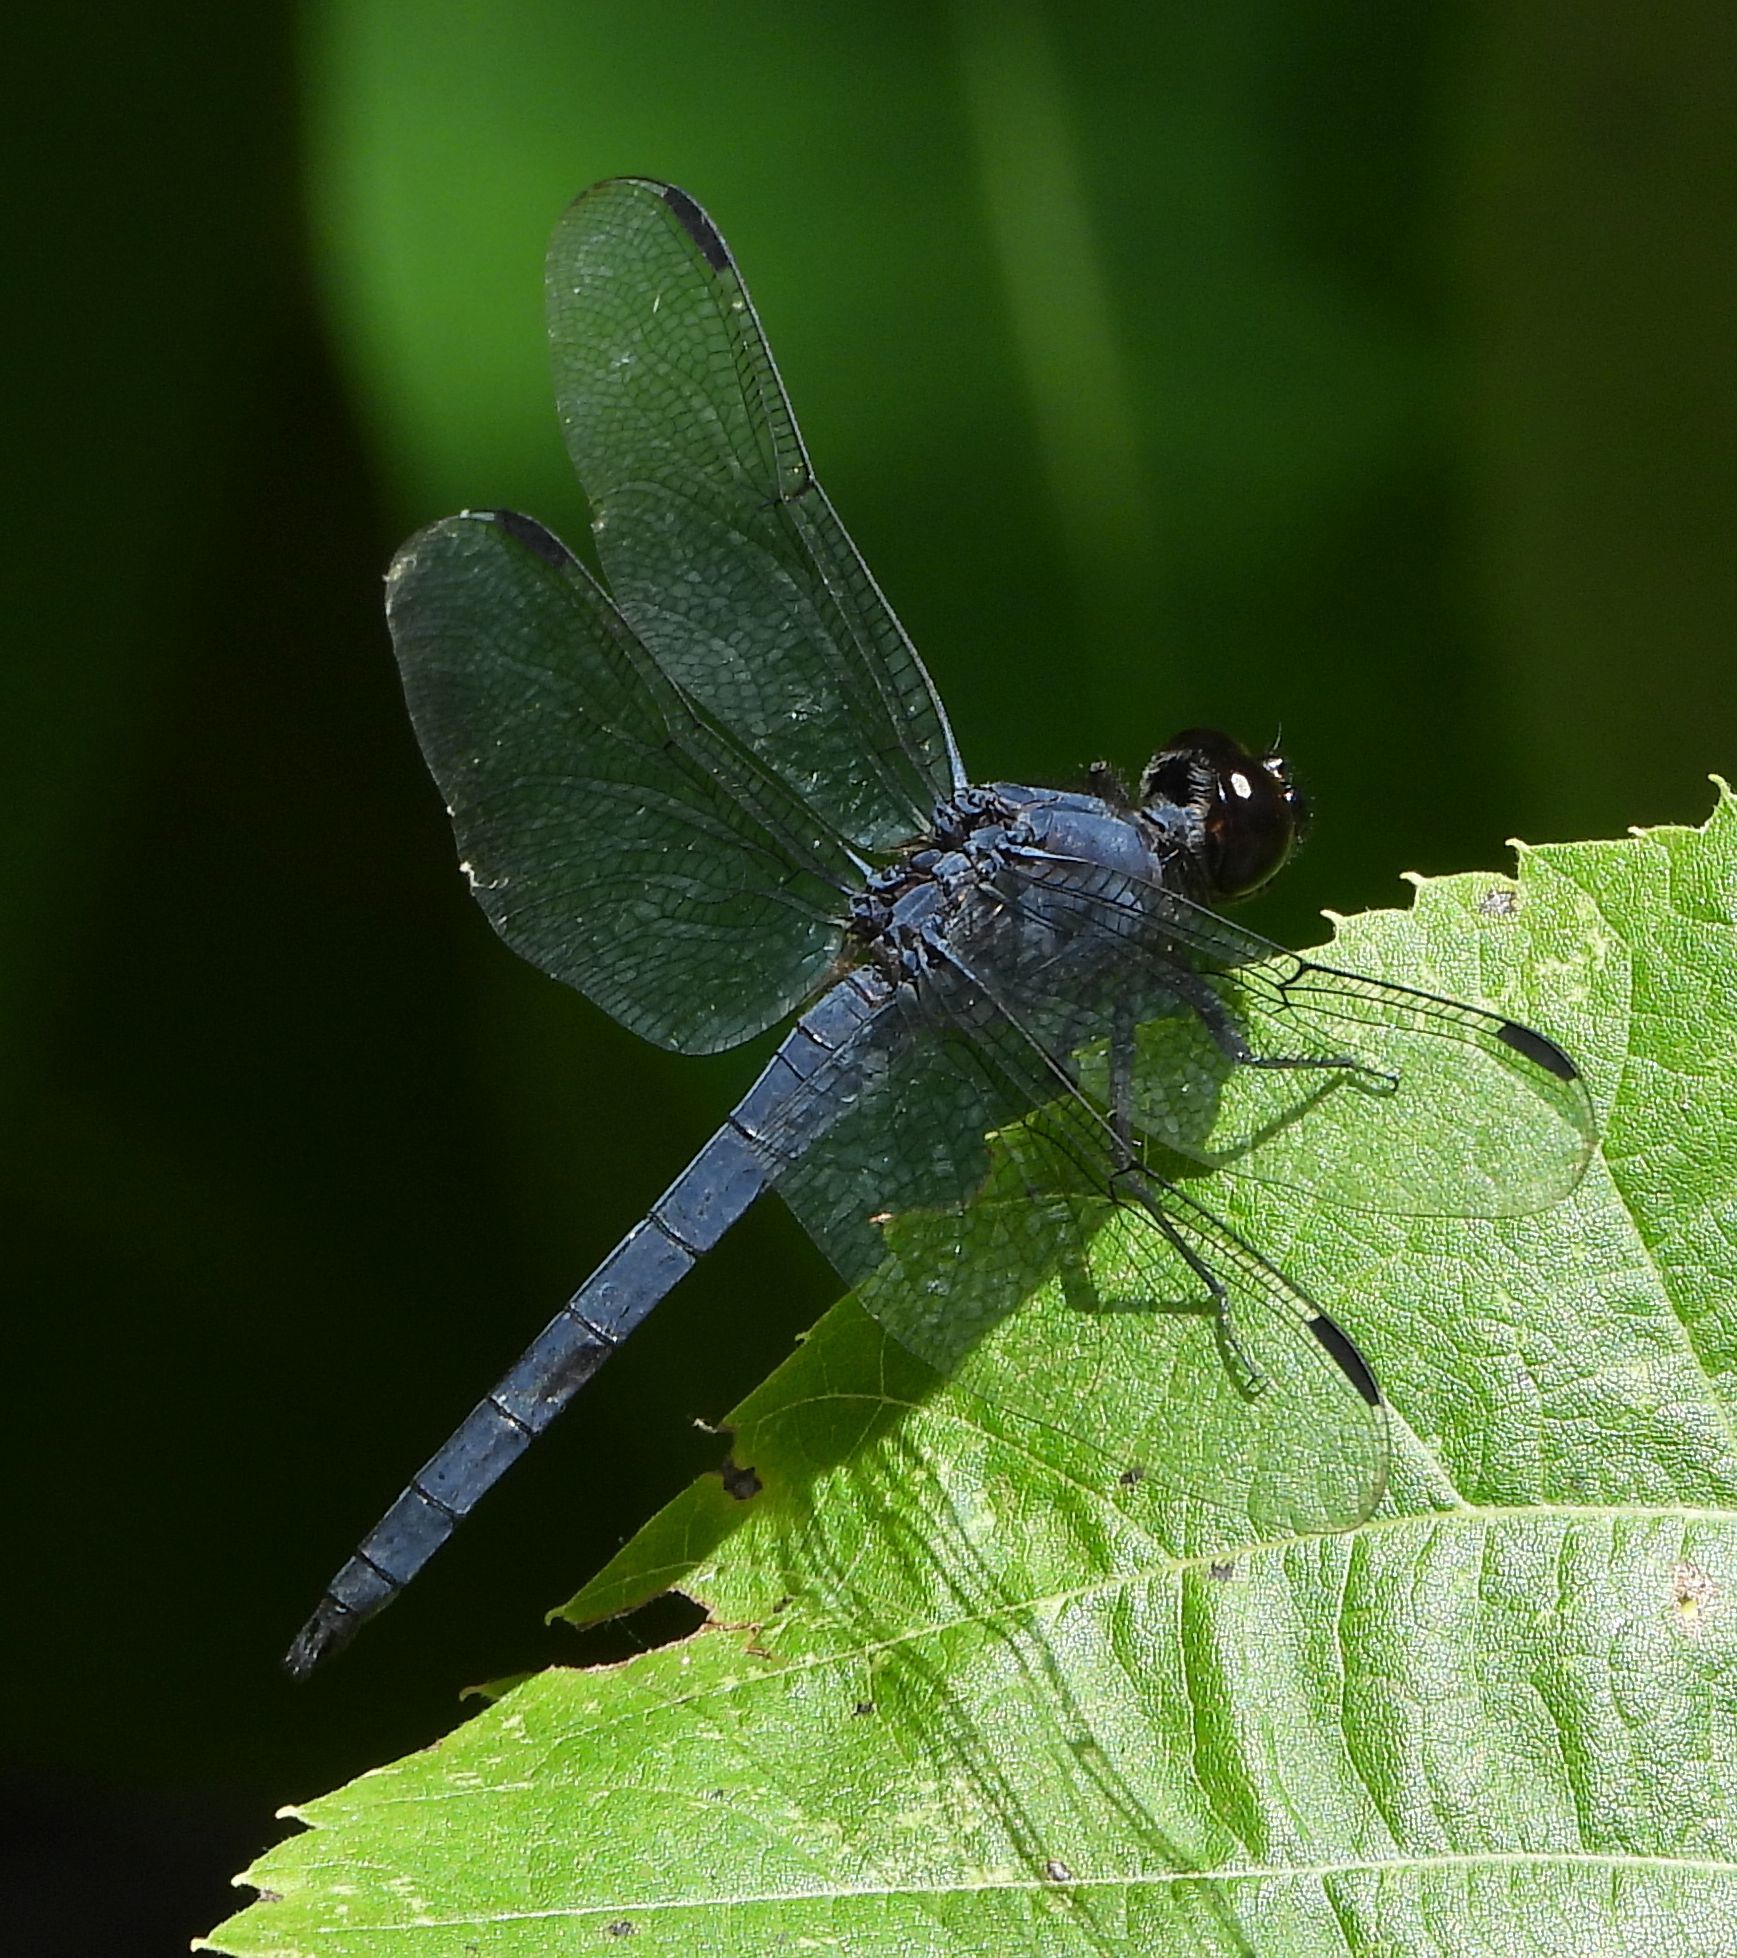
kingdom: Animalia
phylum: Arthropoda
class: Insecta
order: Odonata
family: Libellulidae
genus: Libellula
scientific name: Libellula incesta
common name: Slaty skimmer
